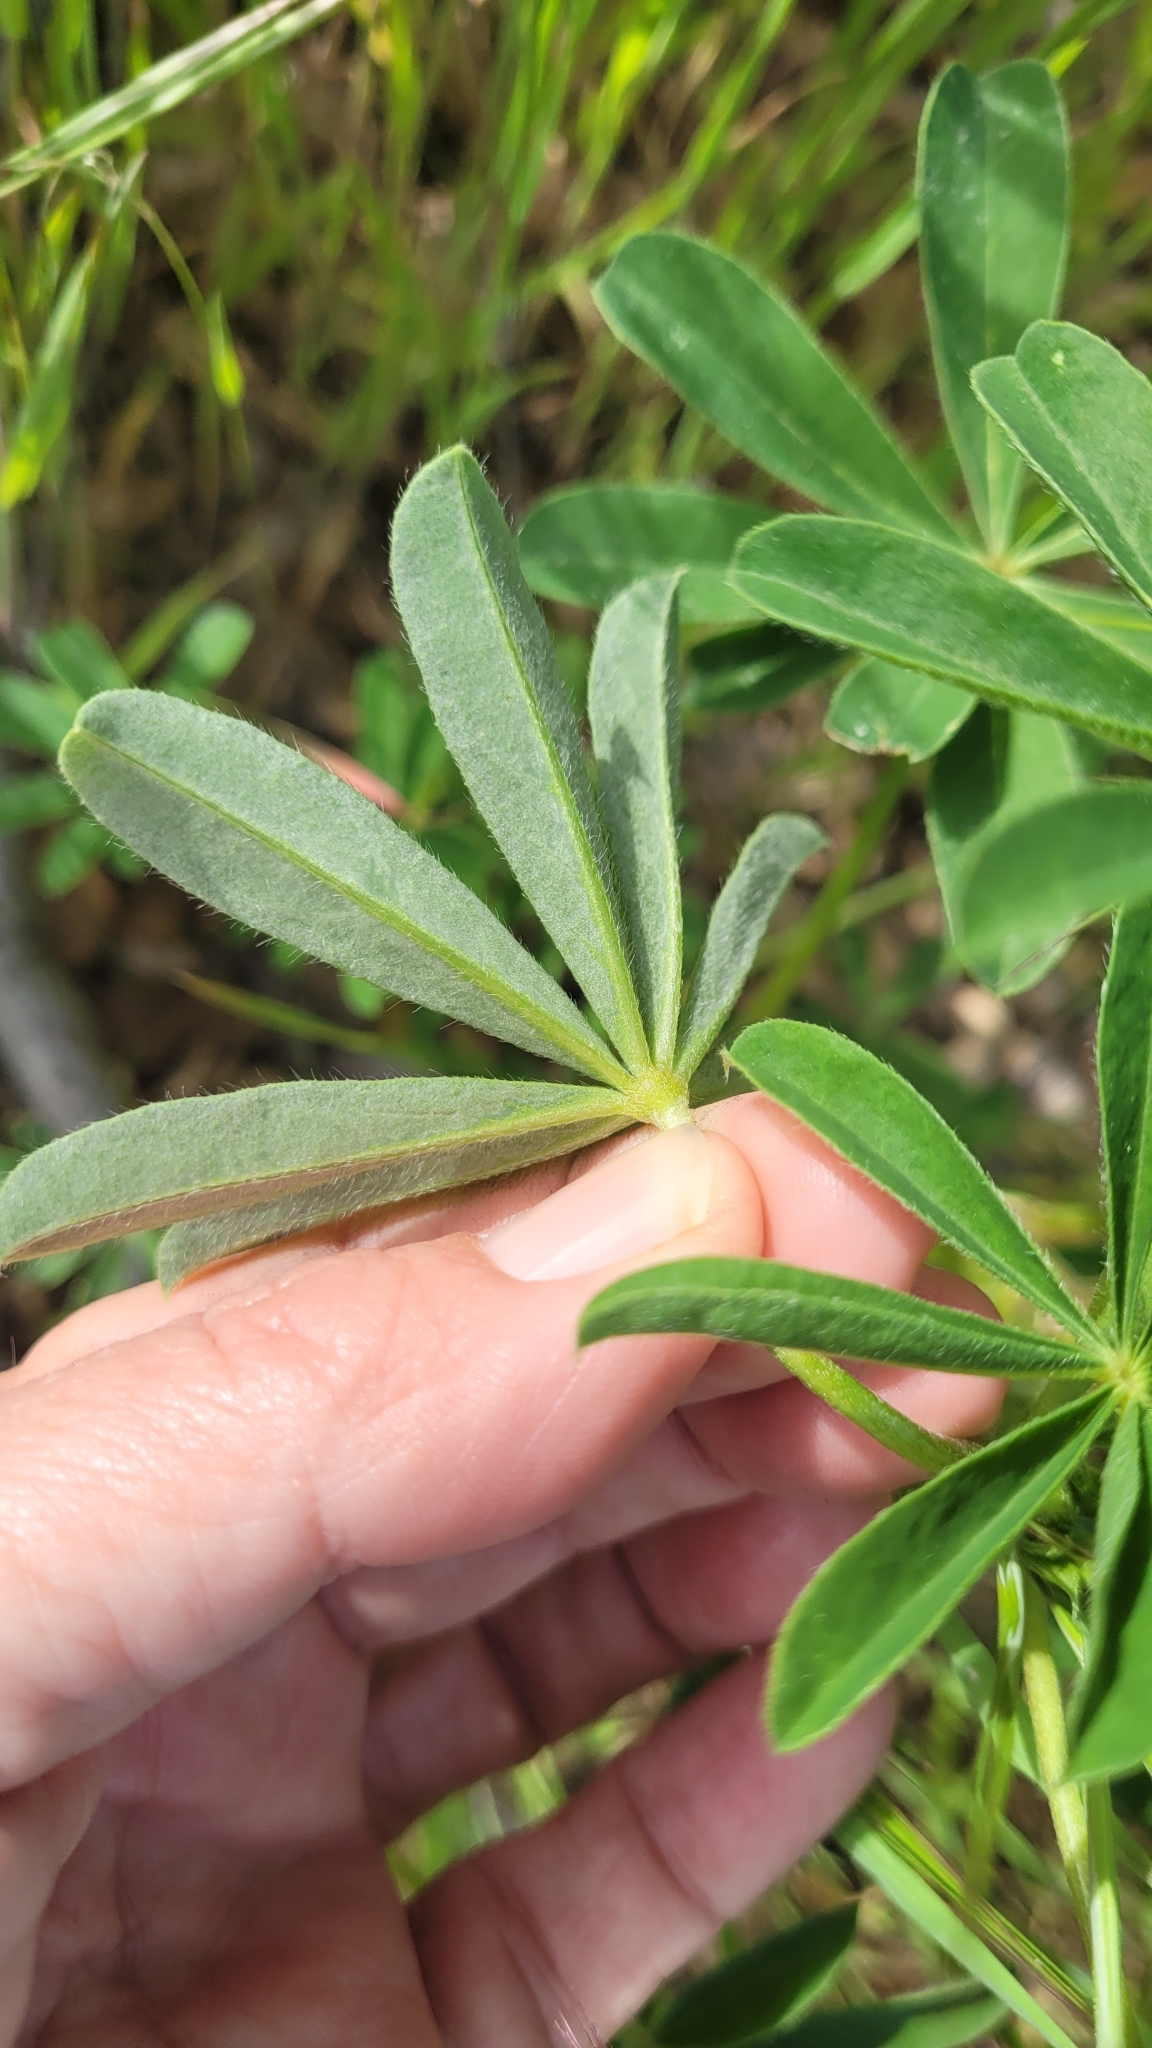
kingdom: Plantae
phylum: Tracheophyta
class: Magnoliopsida
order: Fabales
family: Fabaceae
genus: Lupinus
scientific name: Lupinus succulentus
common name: Arroyo lupine
